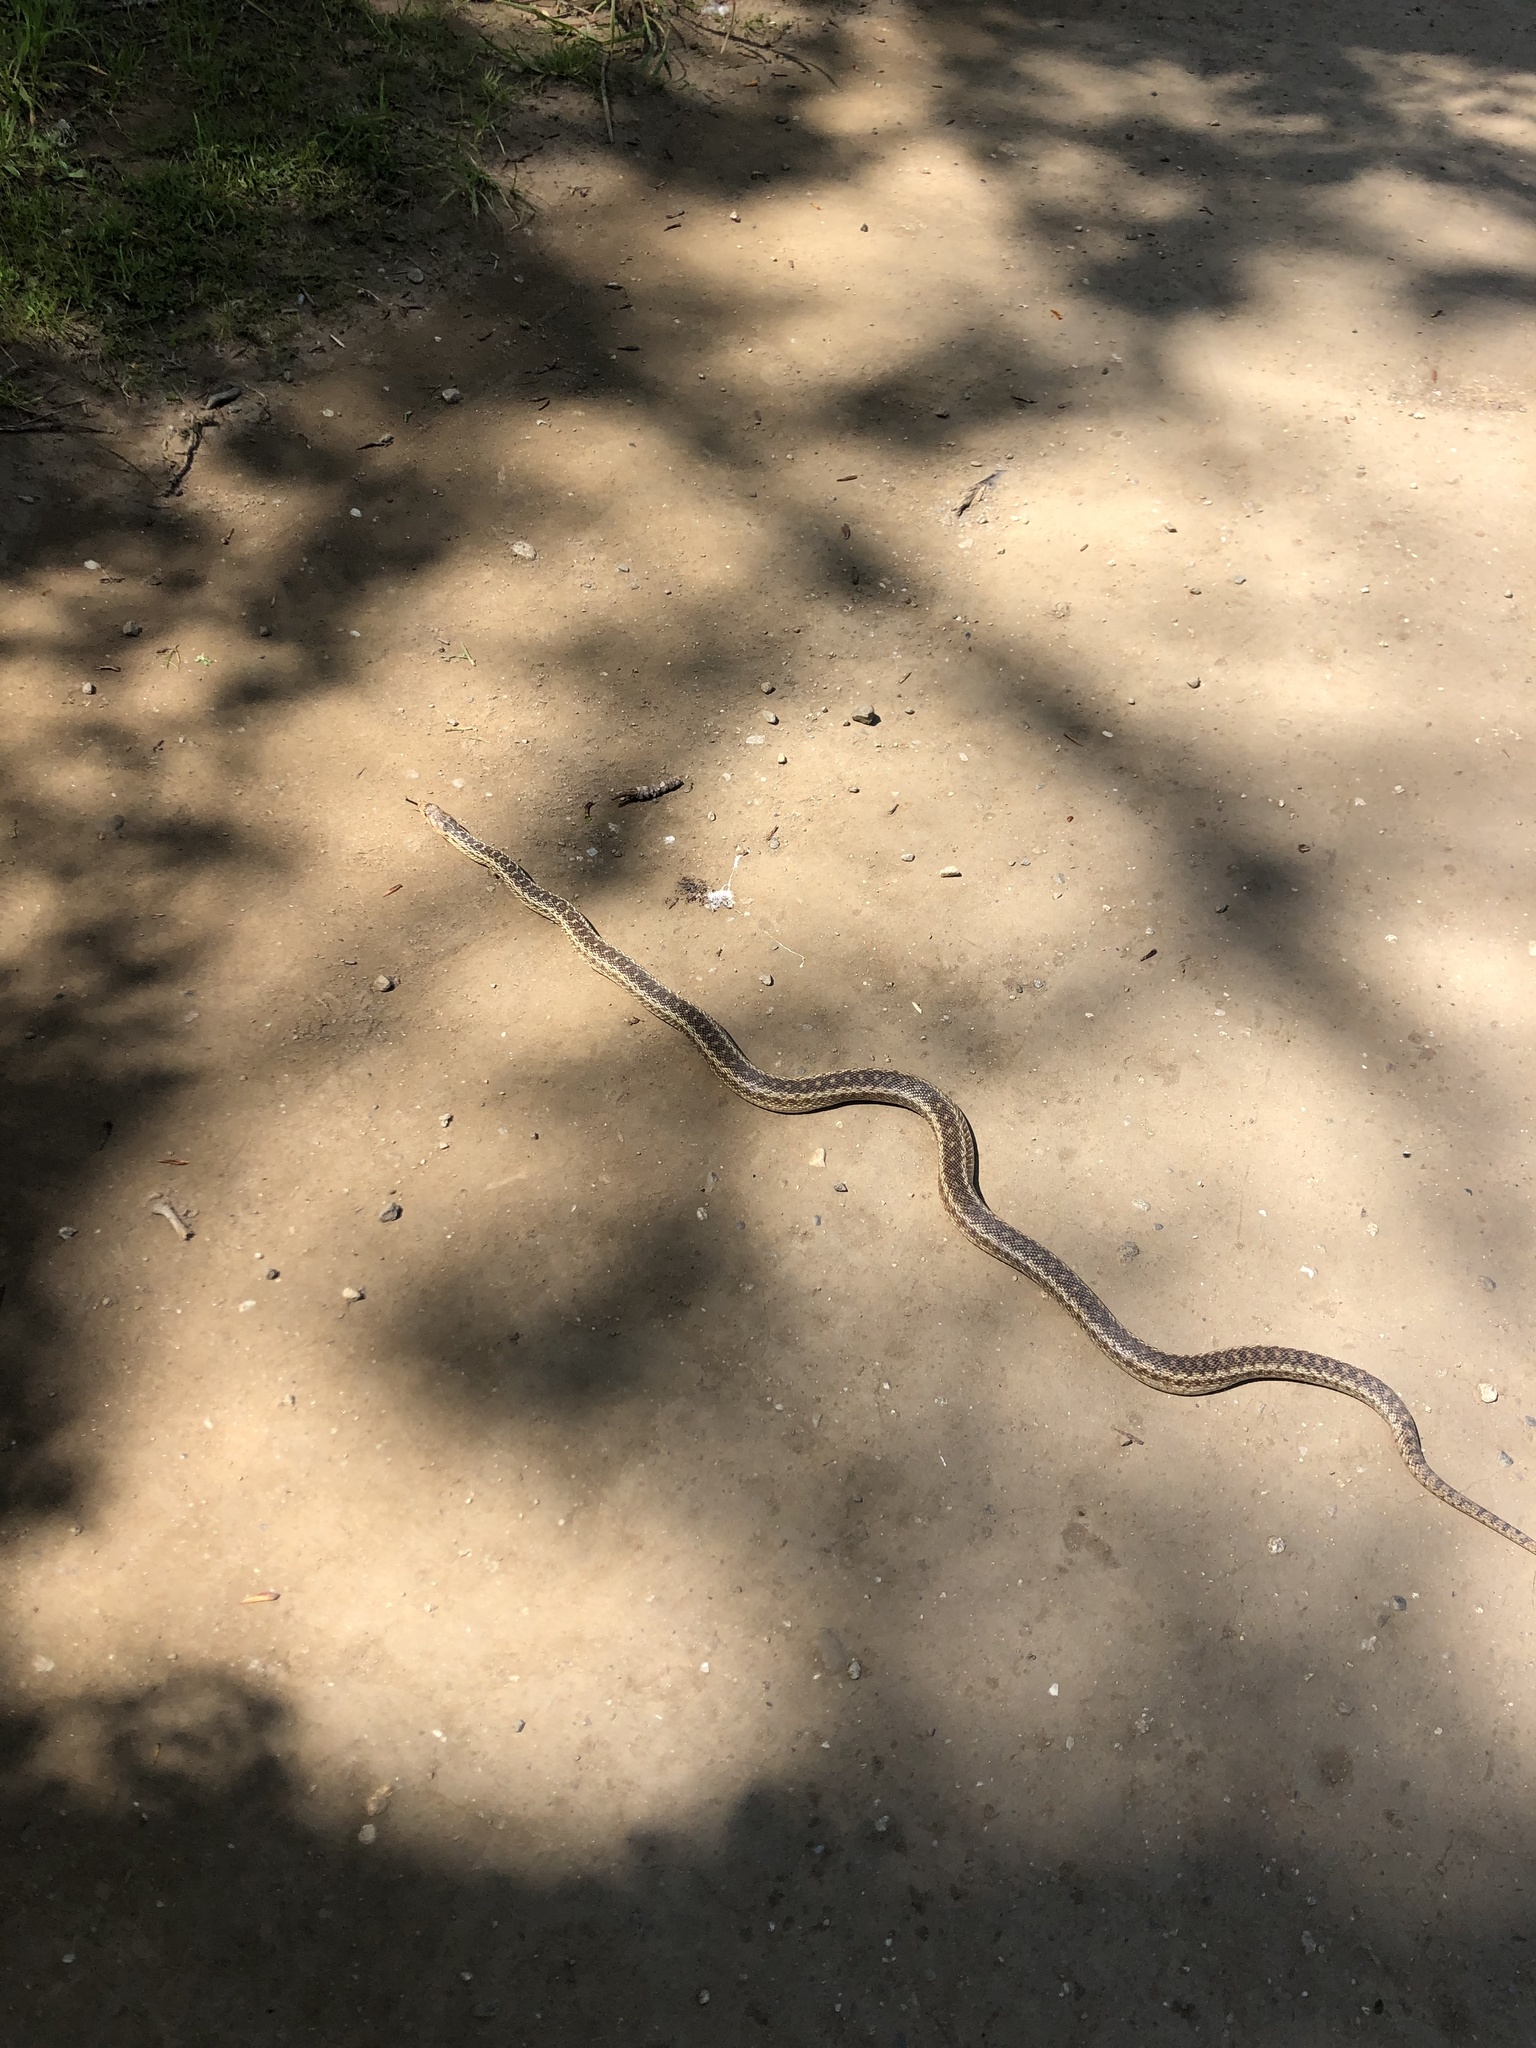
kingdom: Animalia
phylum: Chordata
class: Squamata
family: Colubridae
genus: Pituophis
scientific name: Pituophis catenifer
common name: Gopher snake
